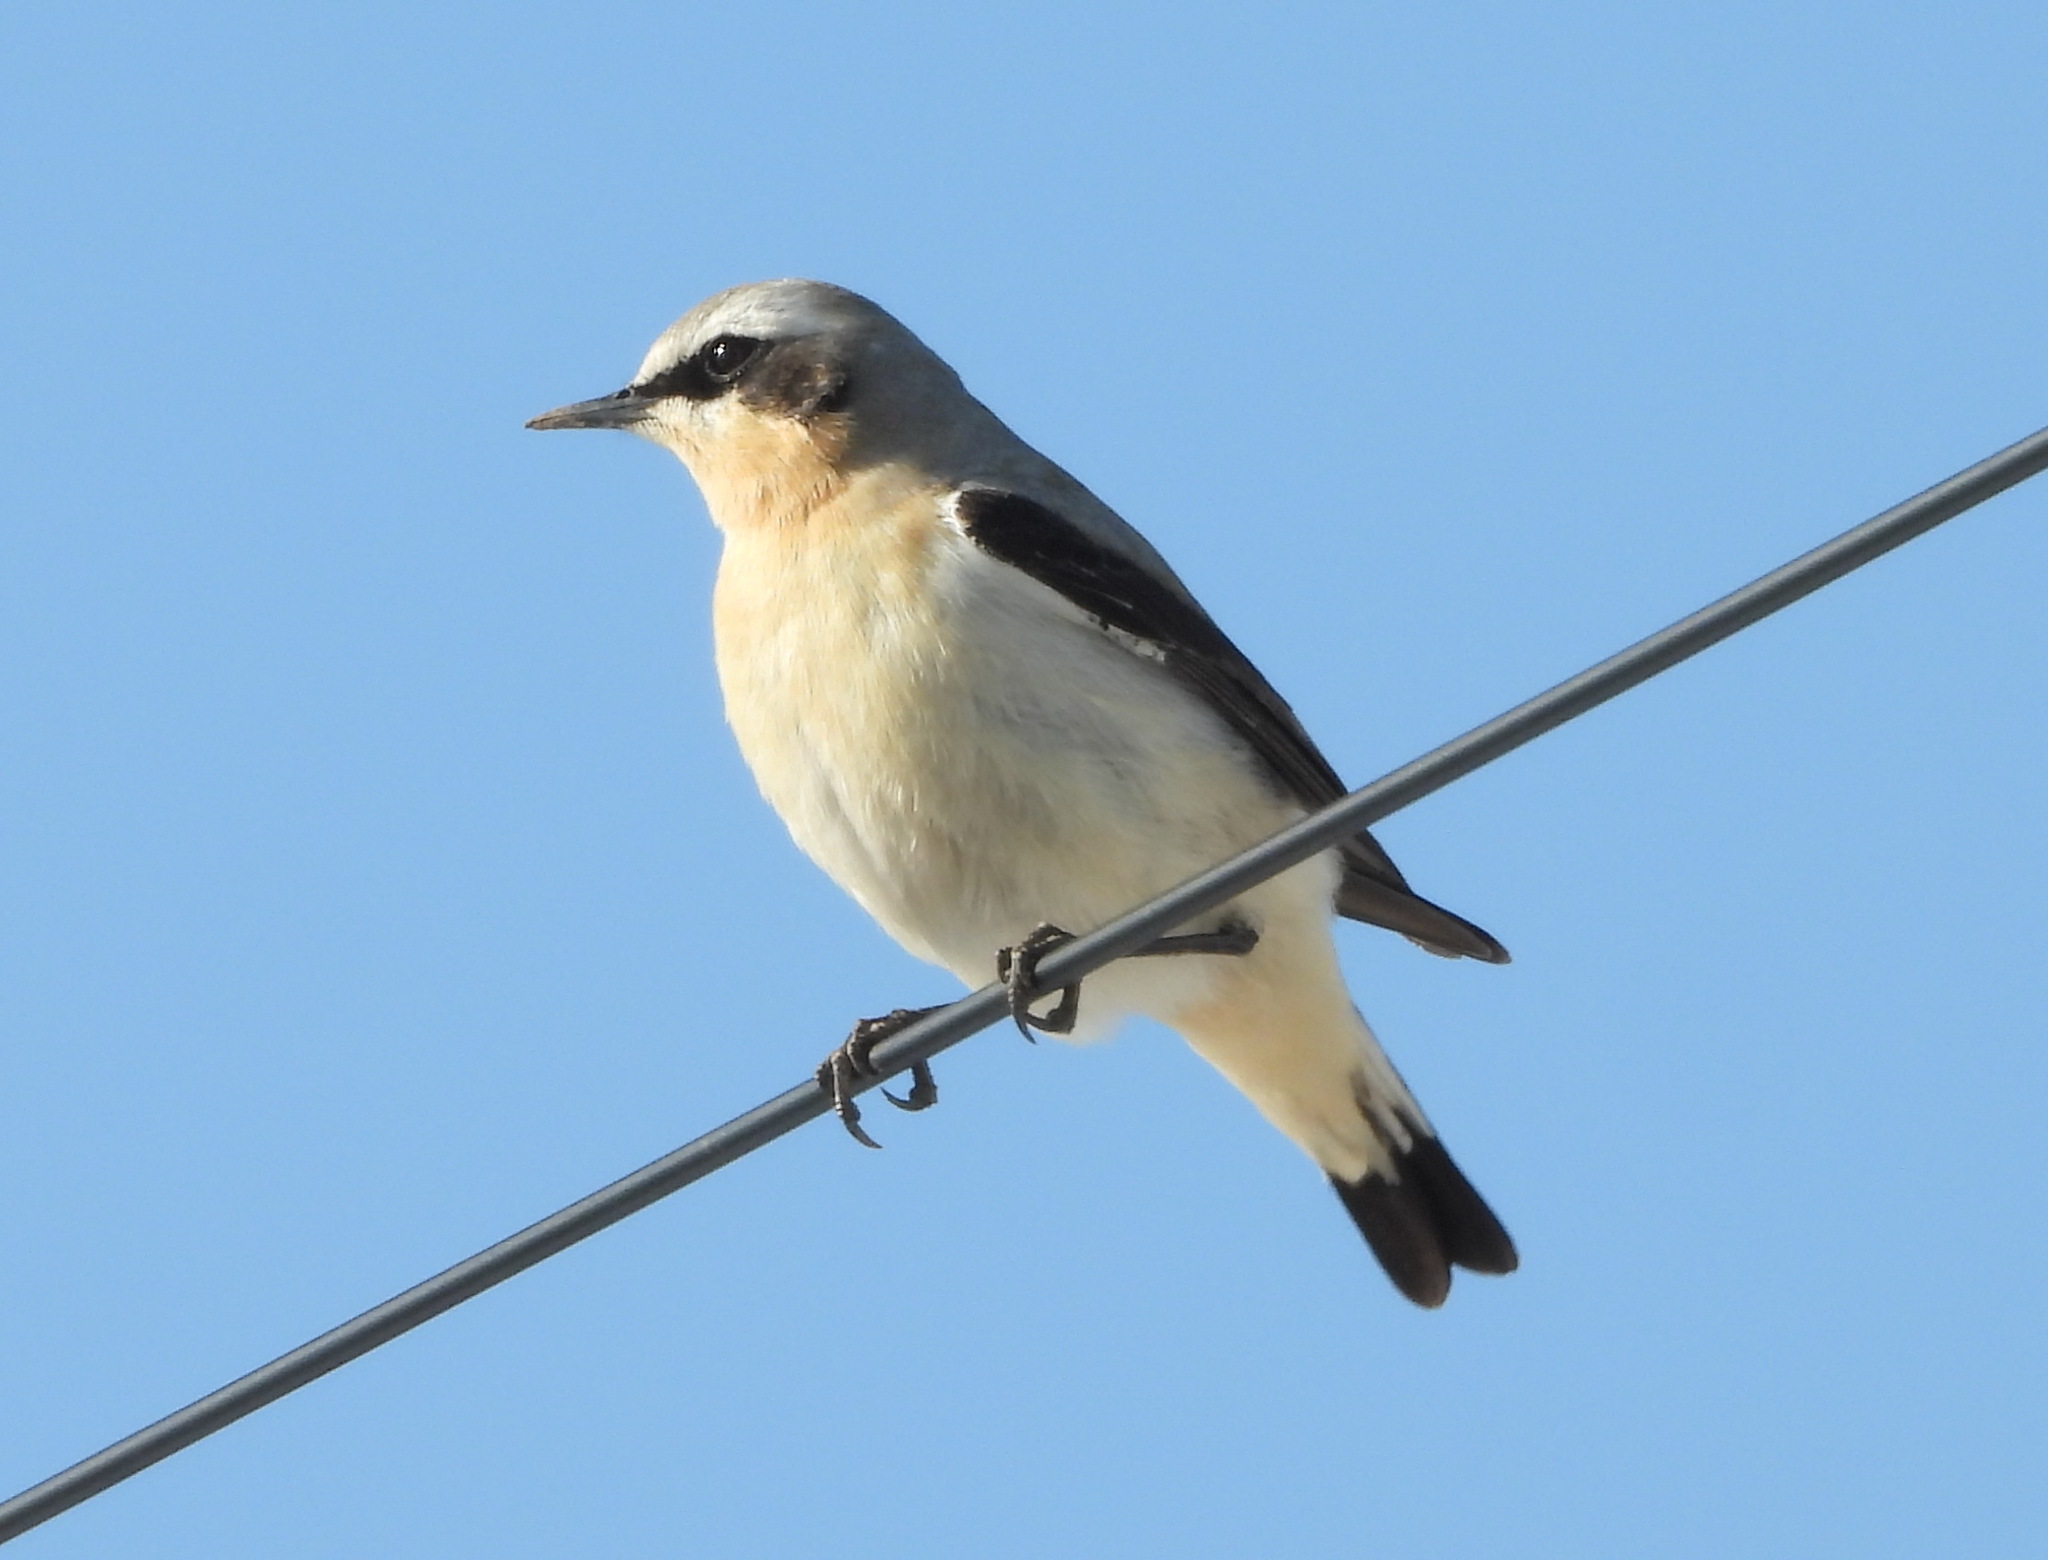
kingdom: Animalia
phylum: Chordata
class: Aves
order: Passeriformes
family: Muscicapidae
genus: Oenanthe
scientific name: Oenanthe oenanthe
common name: Northern wheatear
